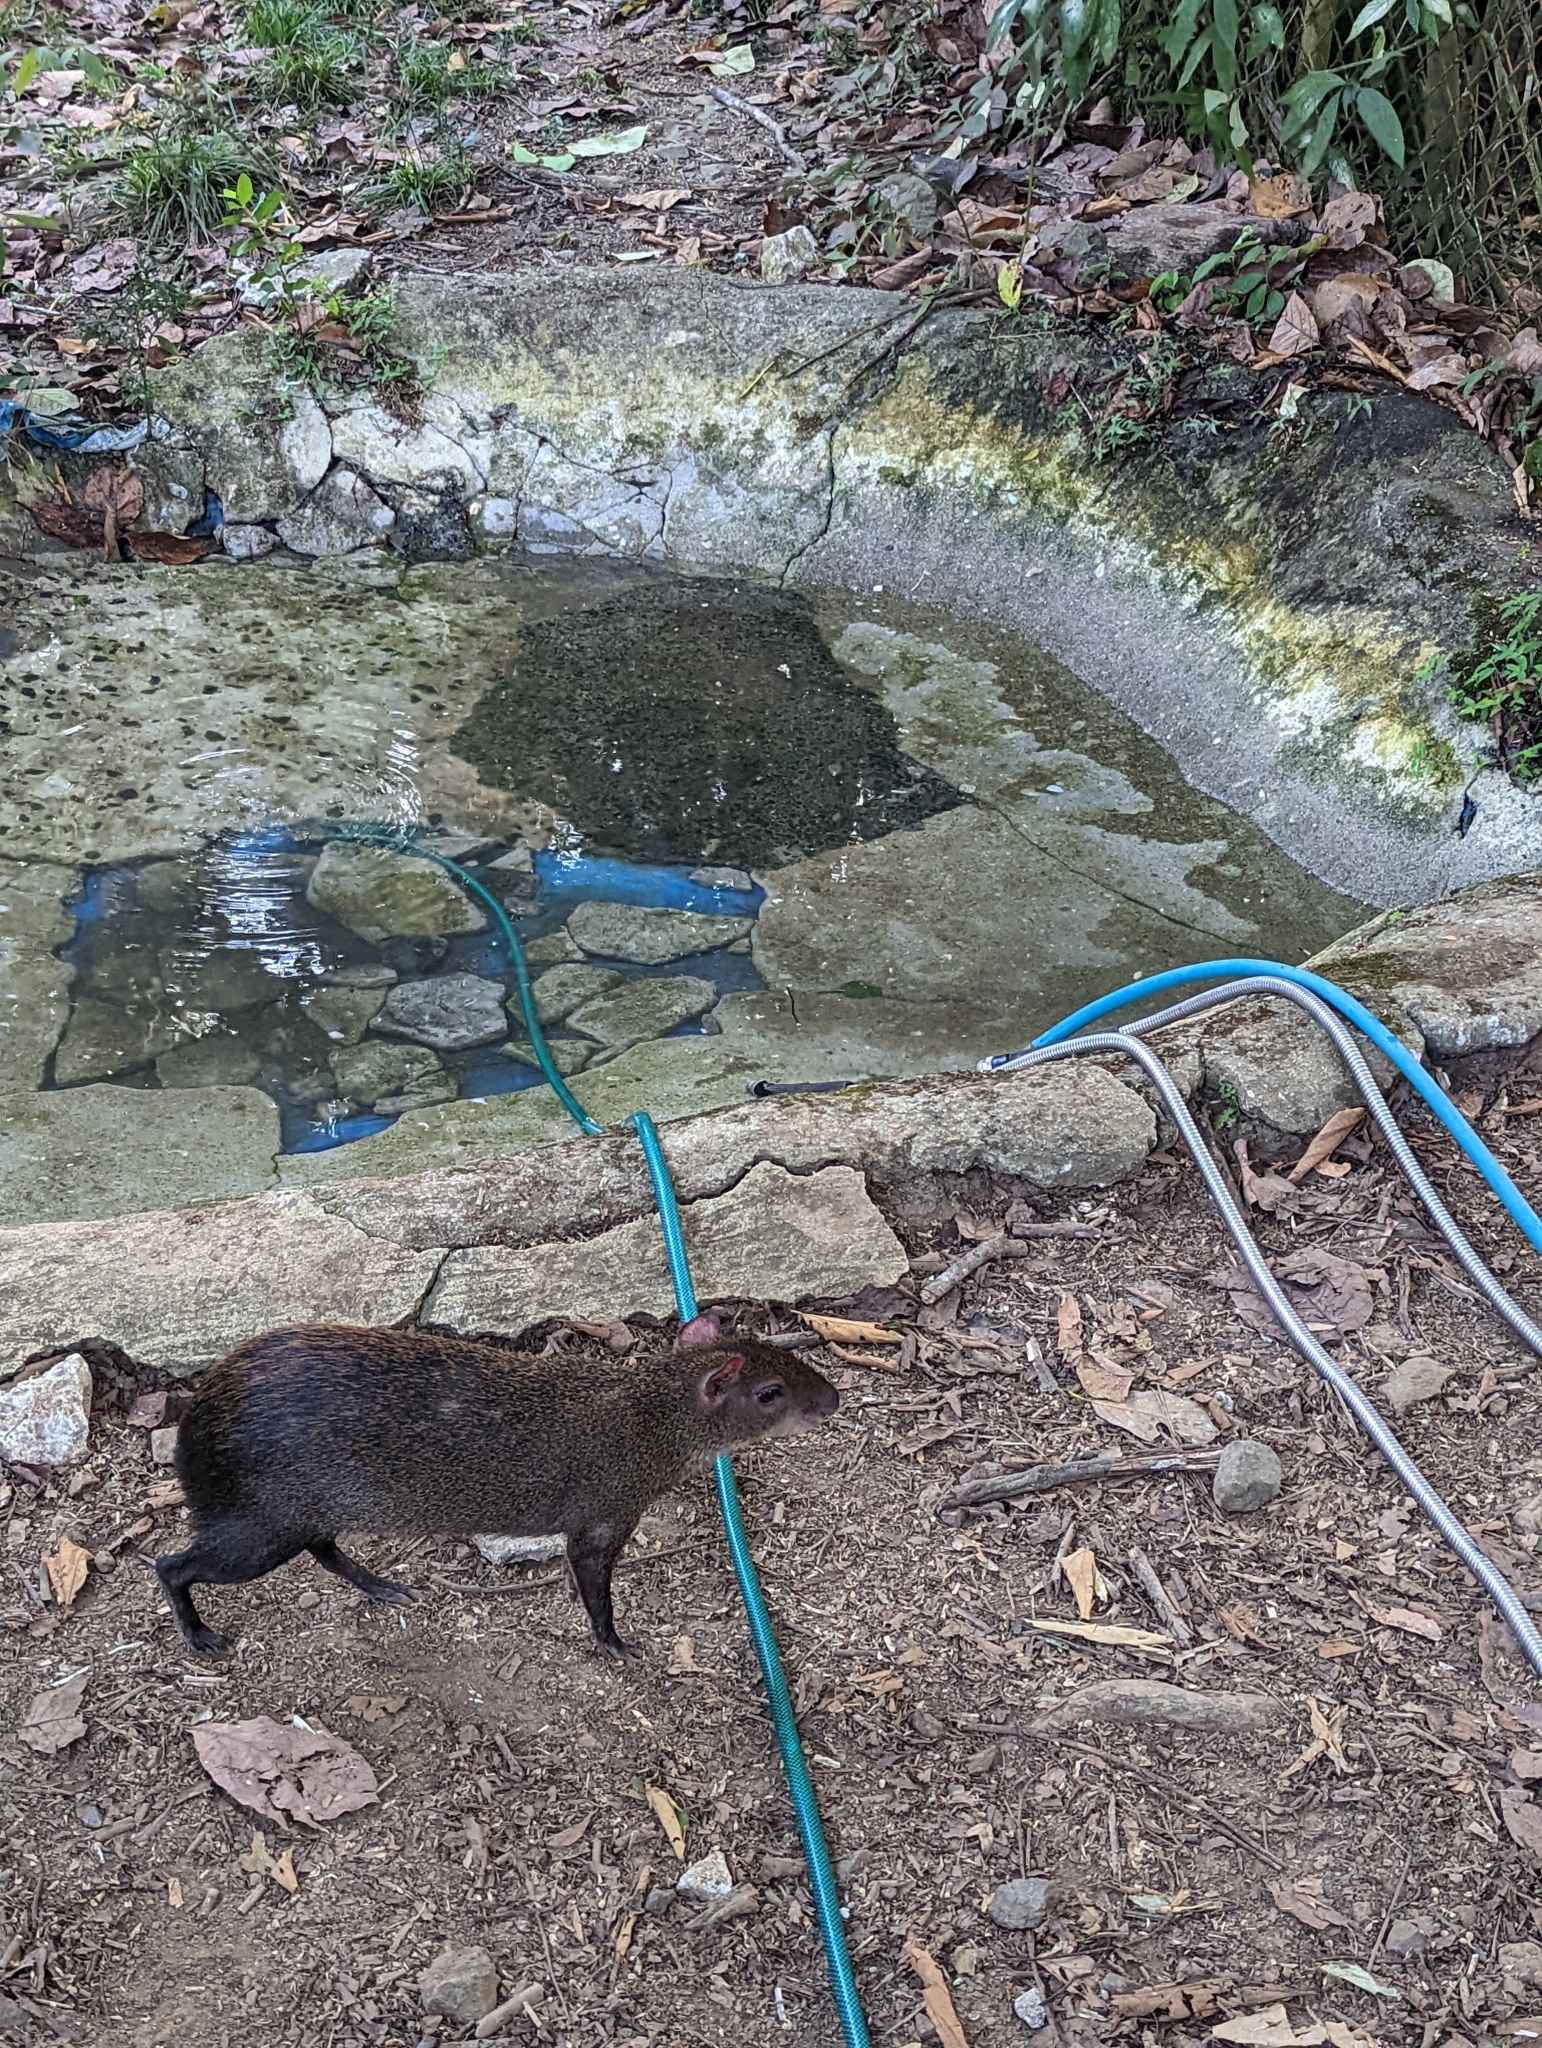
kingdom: Animalia
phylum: Chordata
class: Mammalia
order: Rodentia
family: Dasyproctidae
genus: Dasyprocta
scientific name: Dasyprocta punctata
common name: Central american agouti
